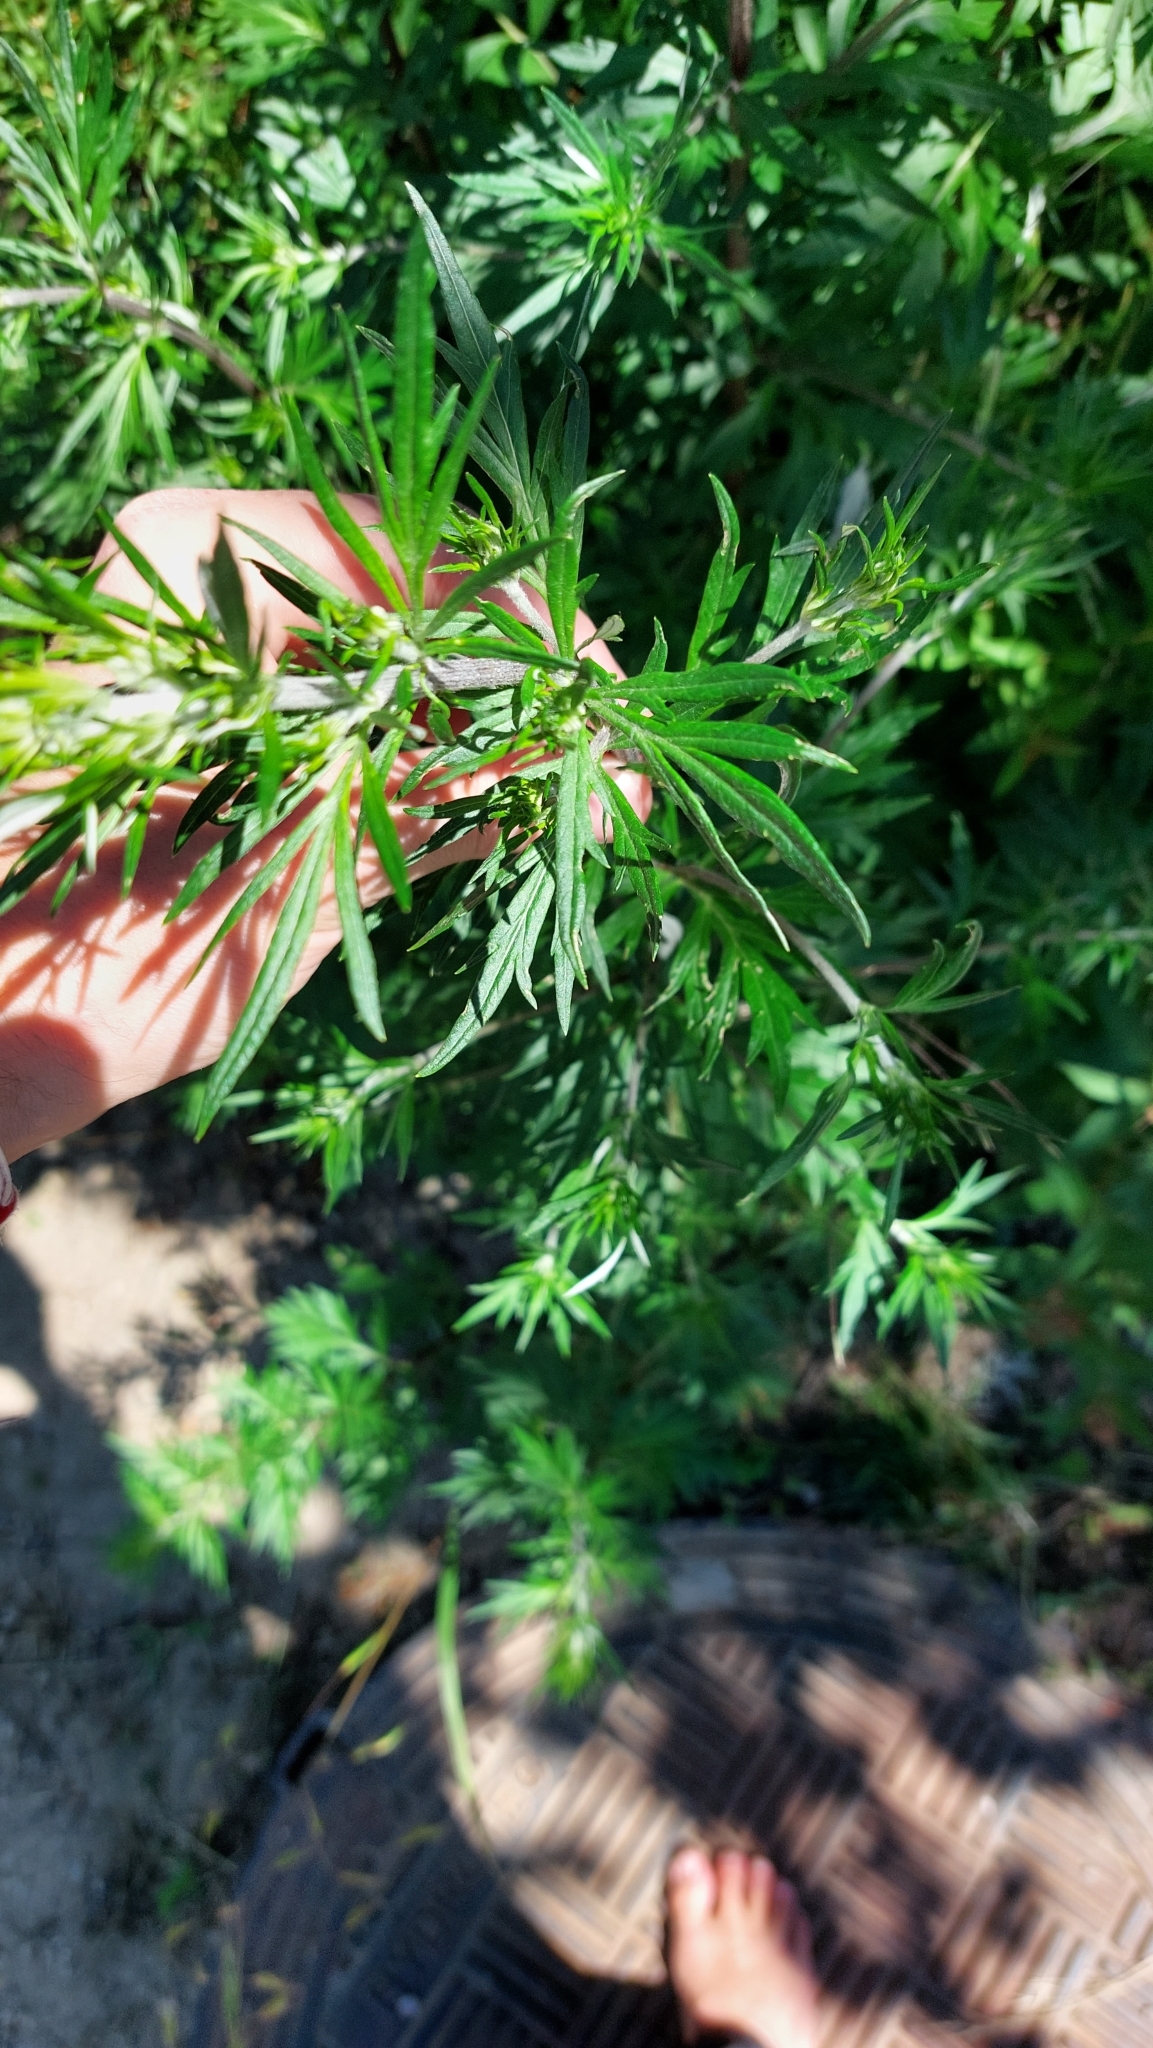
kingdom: Plantae
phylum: Tracheophyta
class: Magnoliopsida
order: Asterales
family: Asteraceae
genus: Artemisia
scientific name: Artemisia vulgaris
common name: Mugwort
